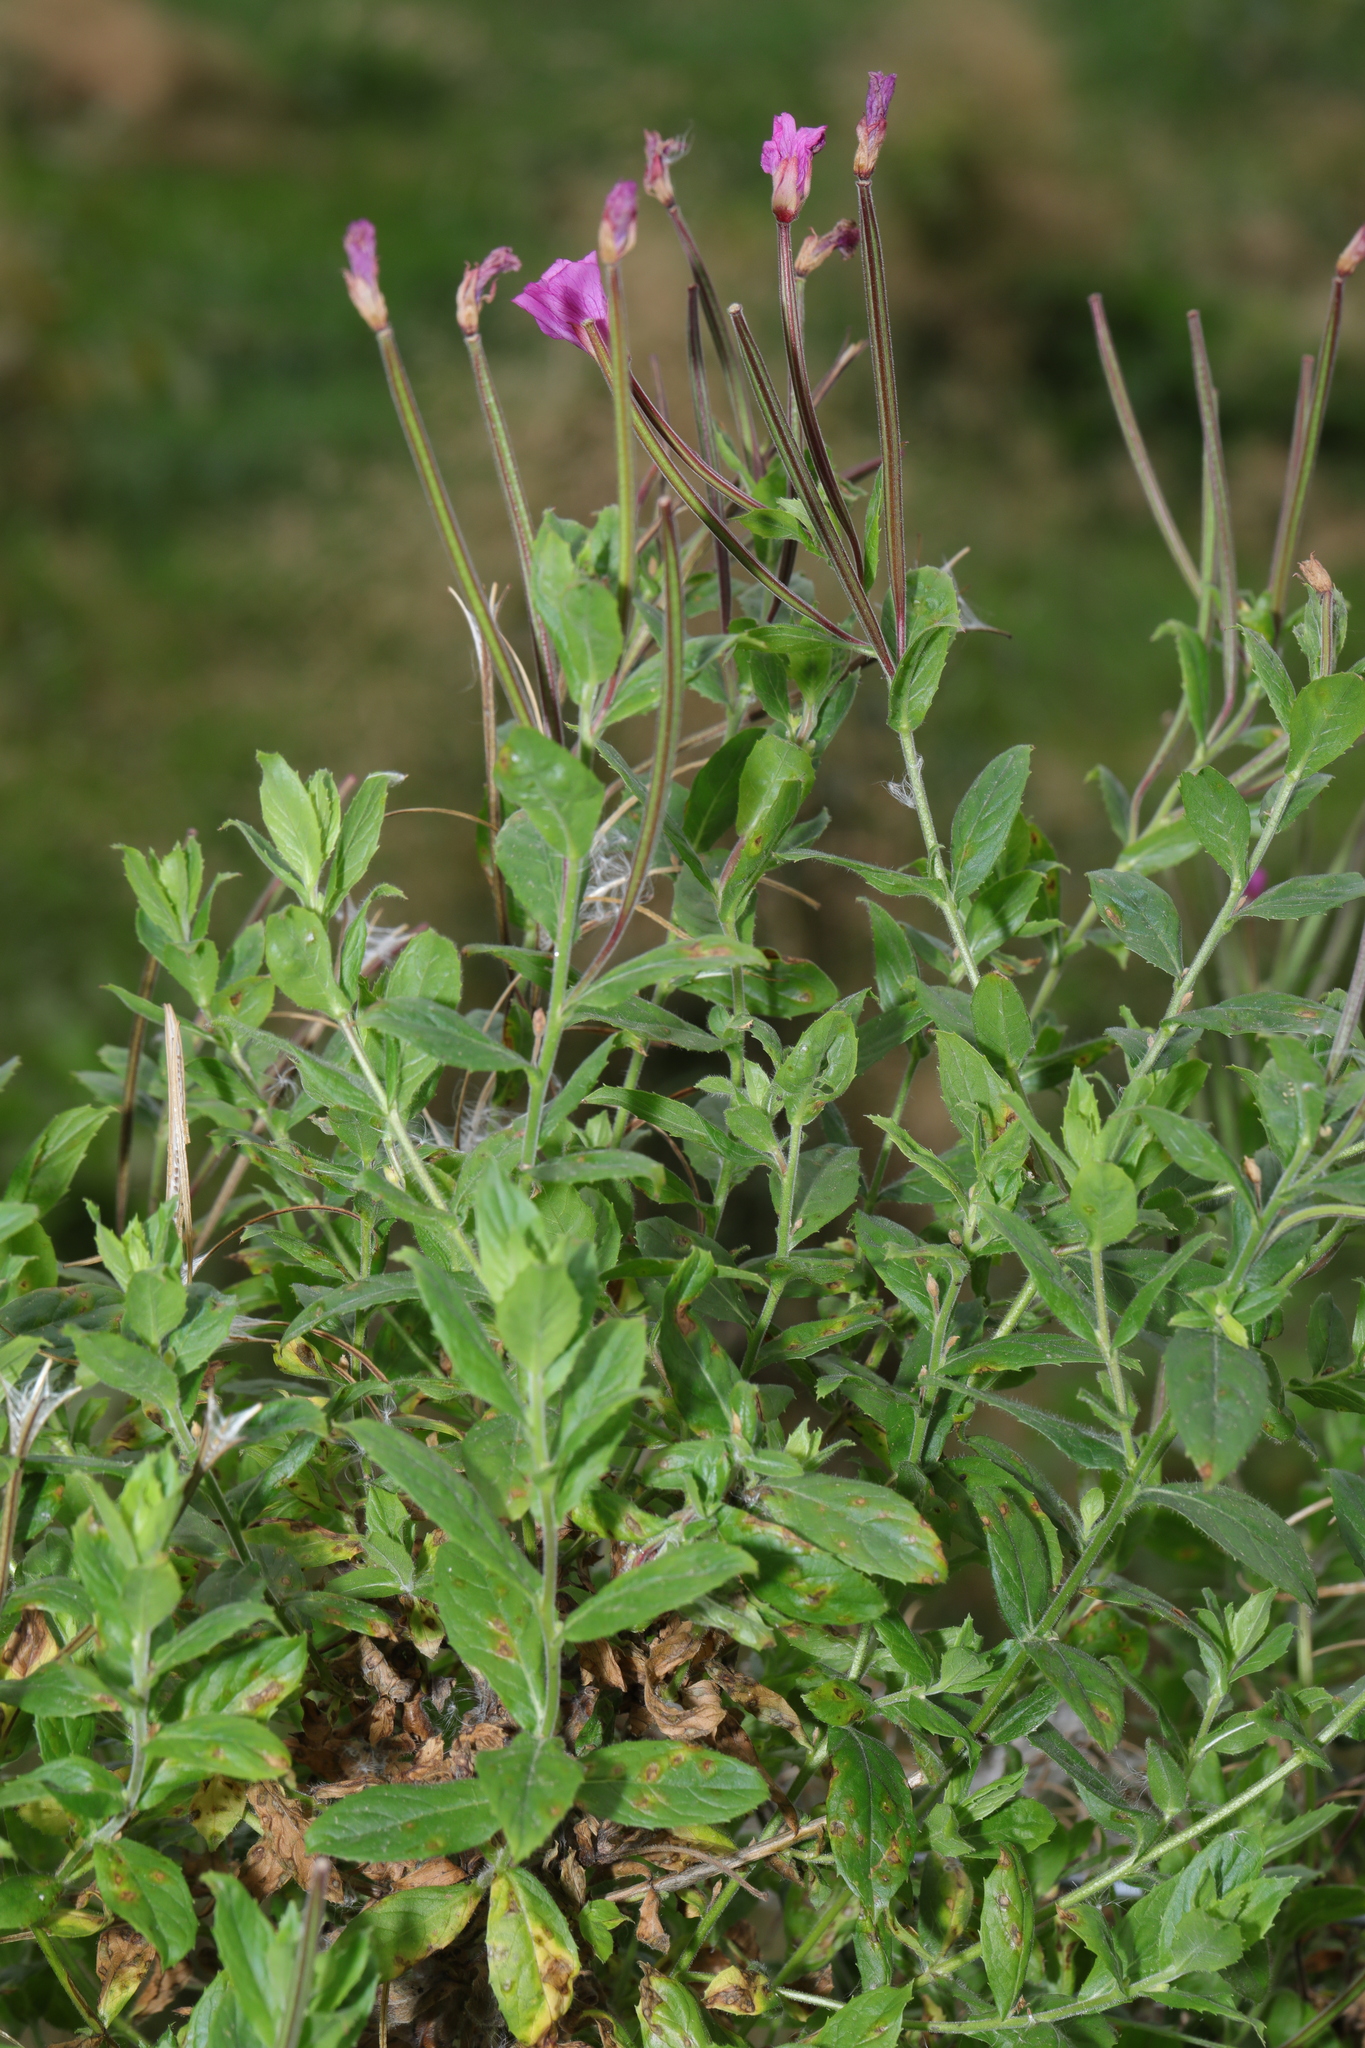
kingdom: Plantae
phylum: Tracheophyta
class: Magnoliopsida
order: Myrtales
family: Onagraceae
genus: Epilobium
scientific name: Epilobium hirsutum
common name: Great willowherb
